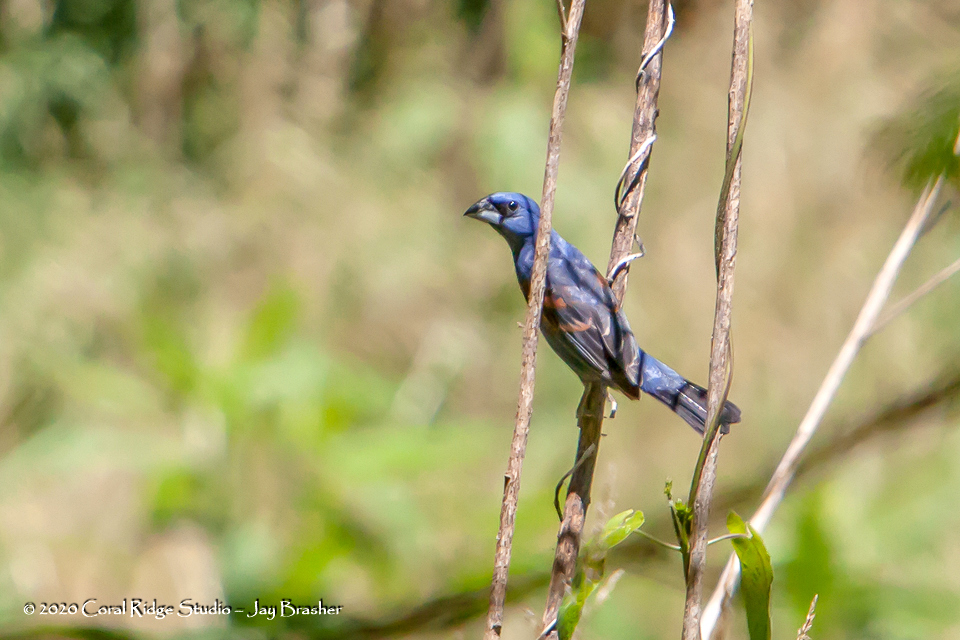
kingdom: Animalia
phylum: Chordata
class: Aves
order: Passeriformes
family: Cardinalidae
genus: Passerina
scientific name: Passerina caerulea
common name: Blue grosbeak
